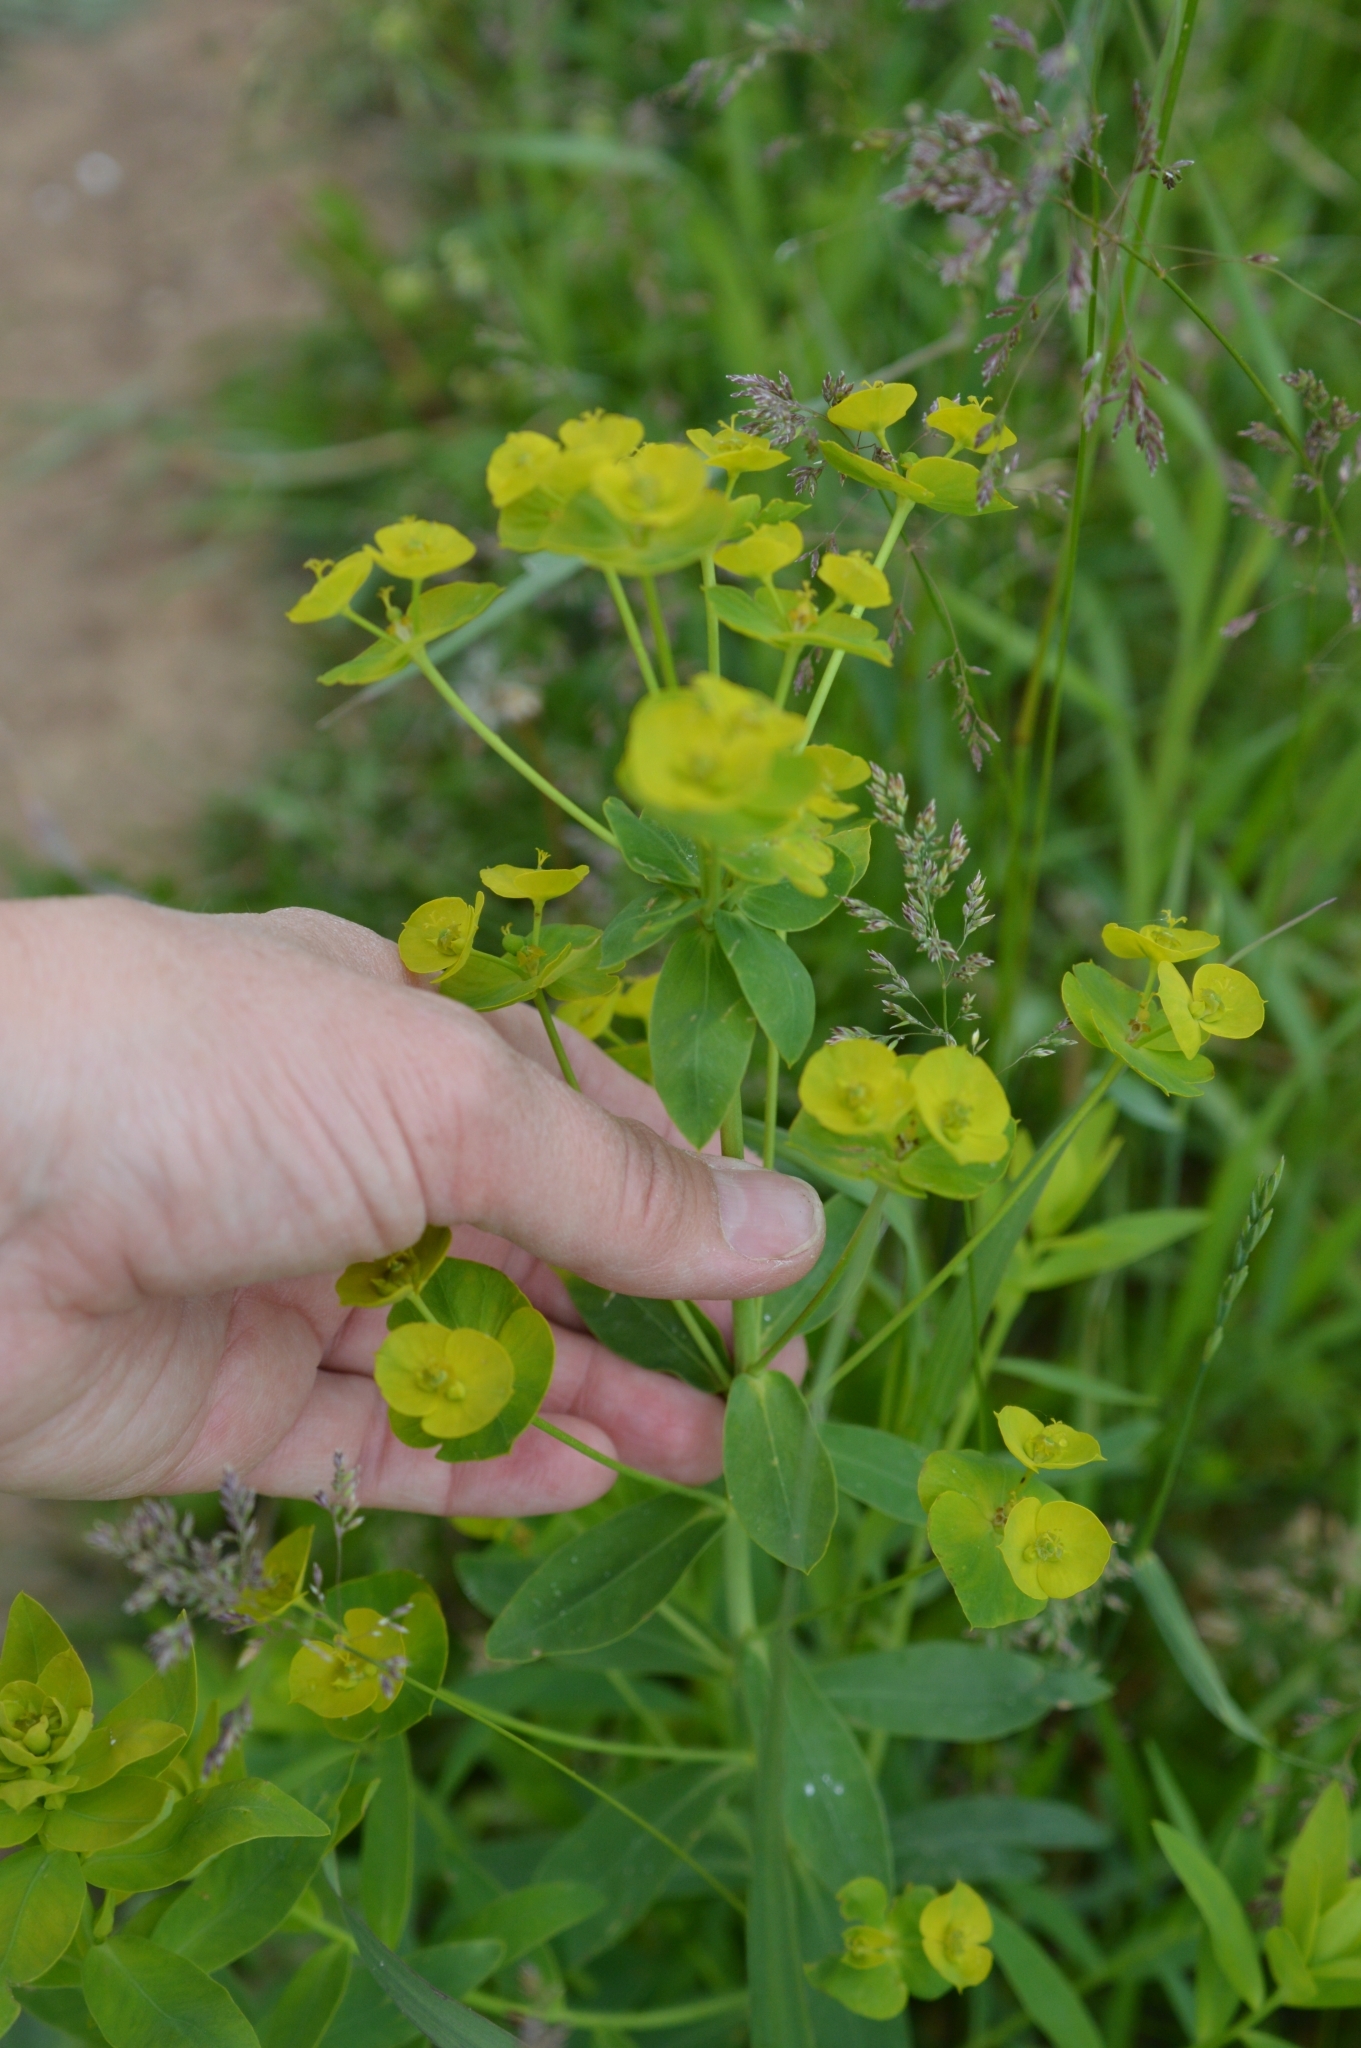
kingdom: Plantae
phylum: Tracheophyta
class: Magnoliopsida
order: Malpighiales
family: Euphorbiaceae
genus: Euphorbia
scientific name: Euphorbia virgata
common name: Leafy spurge
